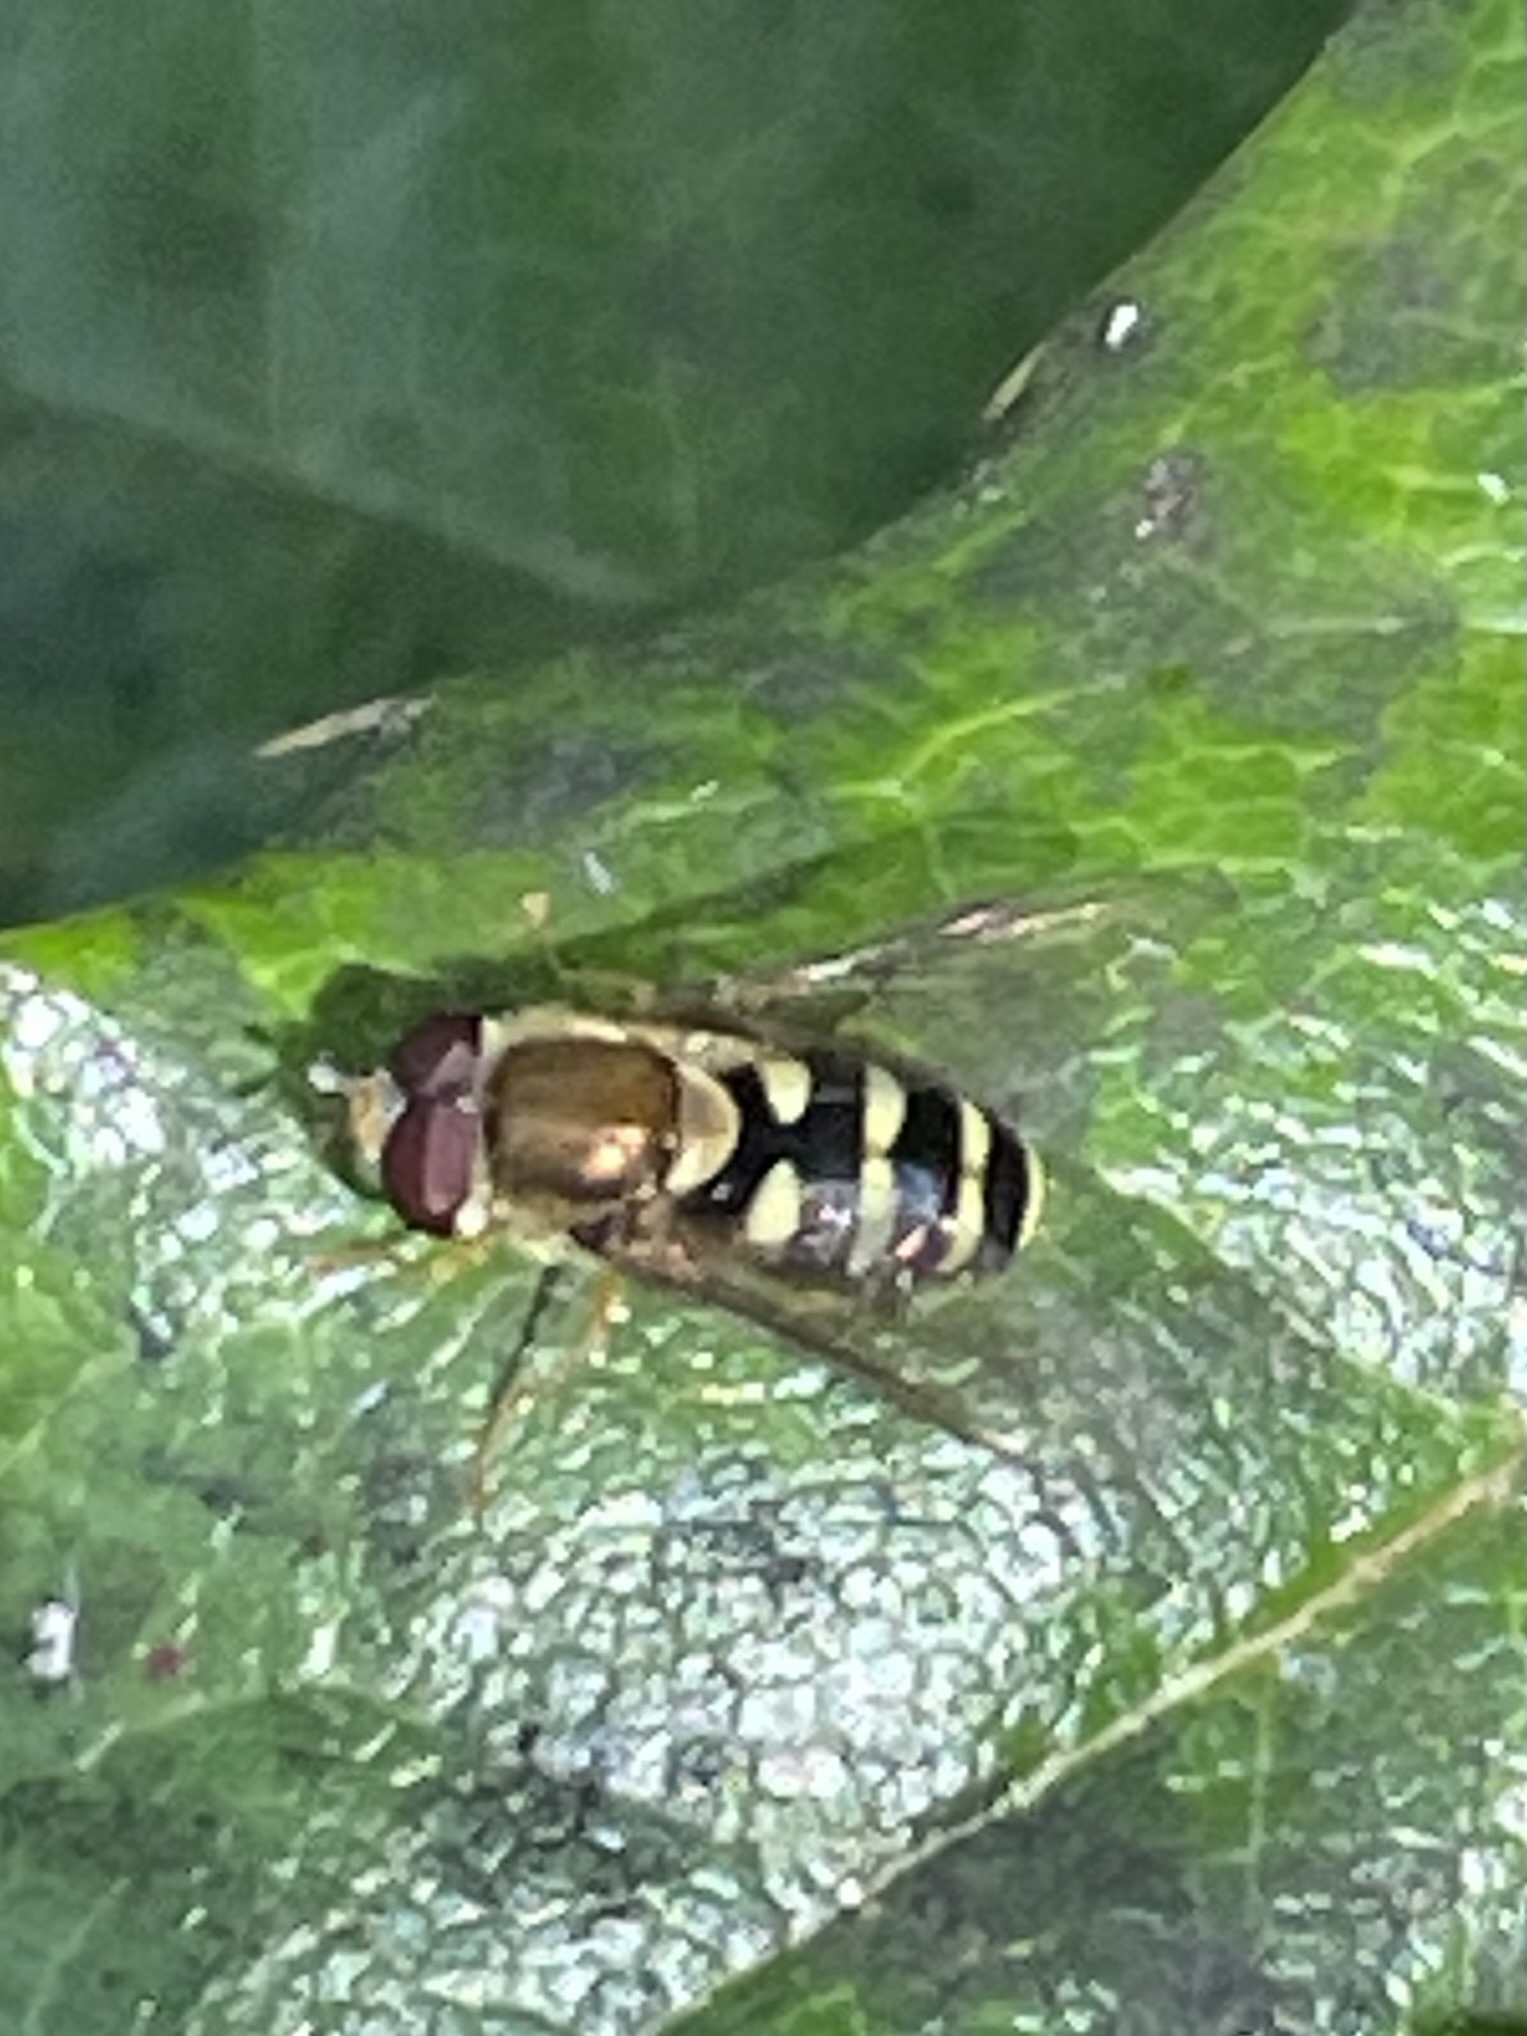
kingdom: Animalia
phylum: Arthropoda
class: Insecta
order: Diptera
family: Syrphidae
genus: Syrphus
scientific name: Syrphus opinator
